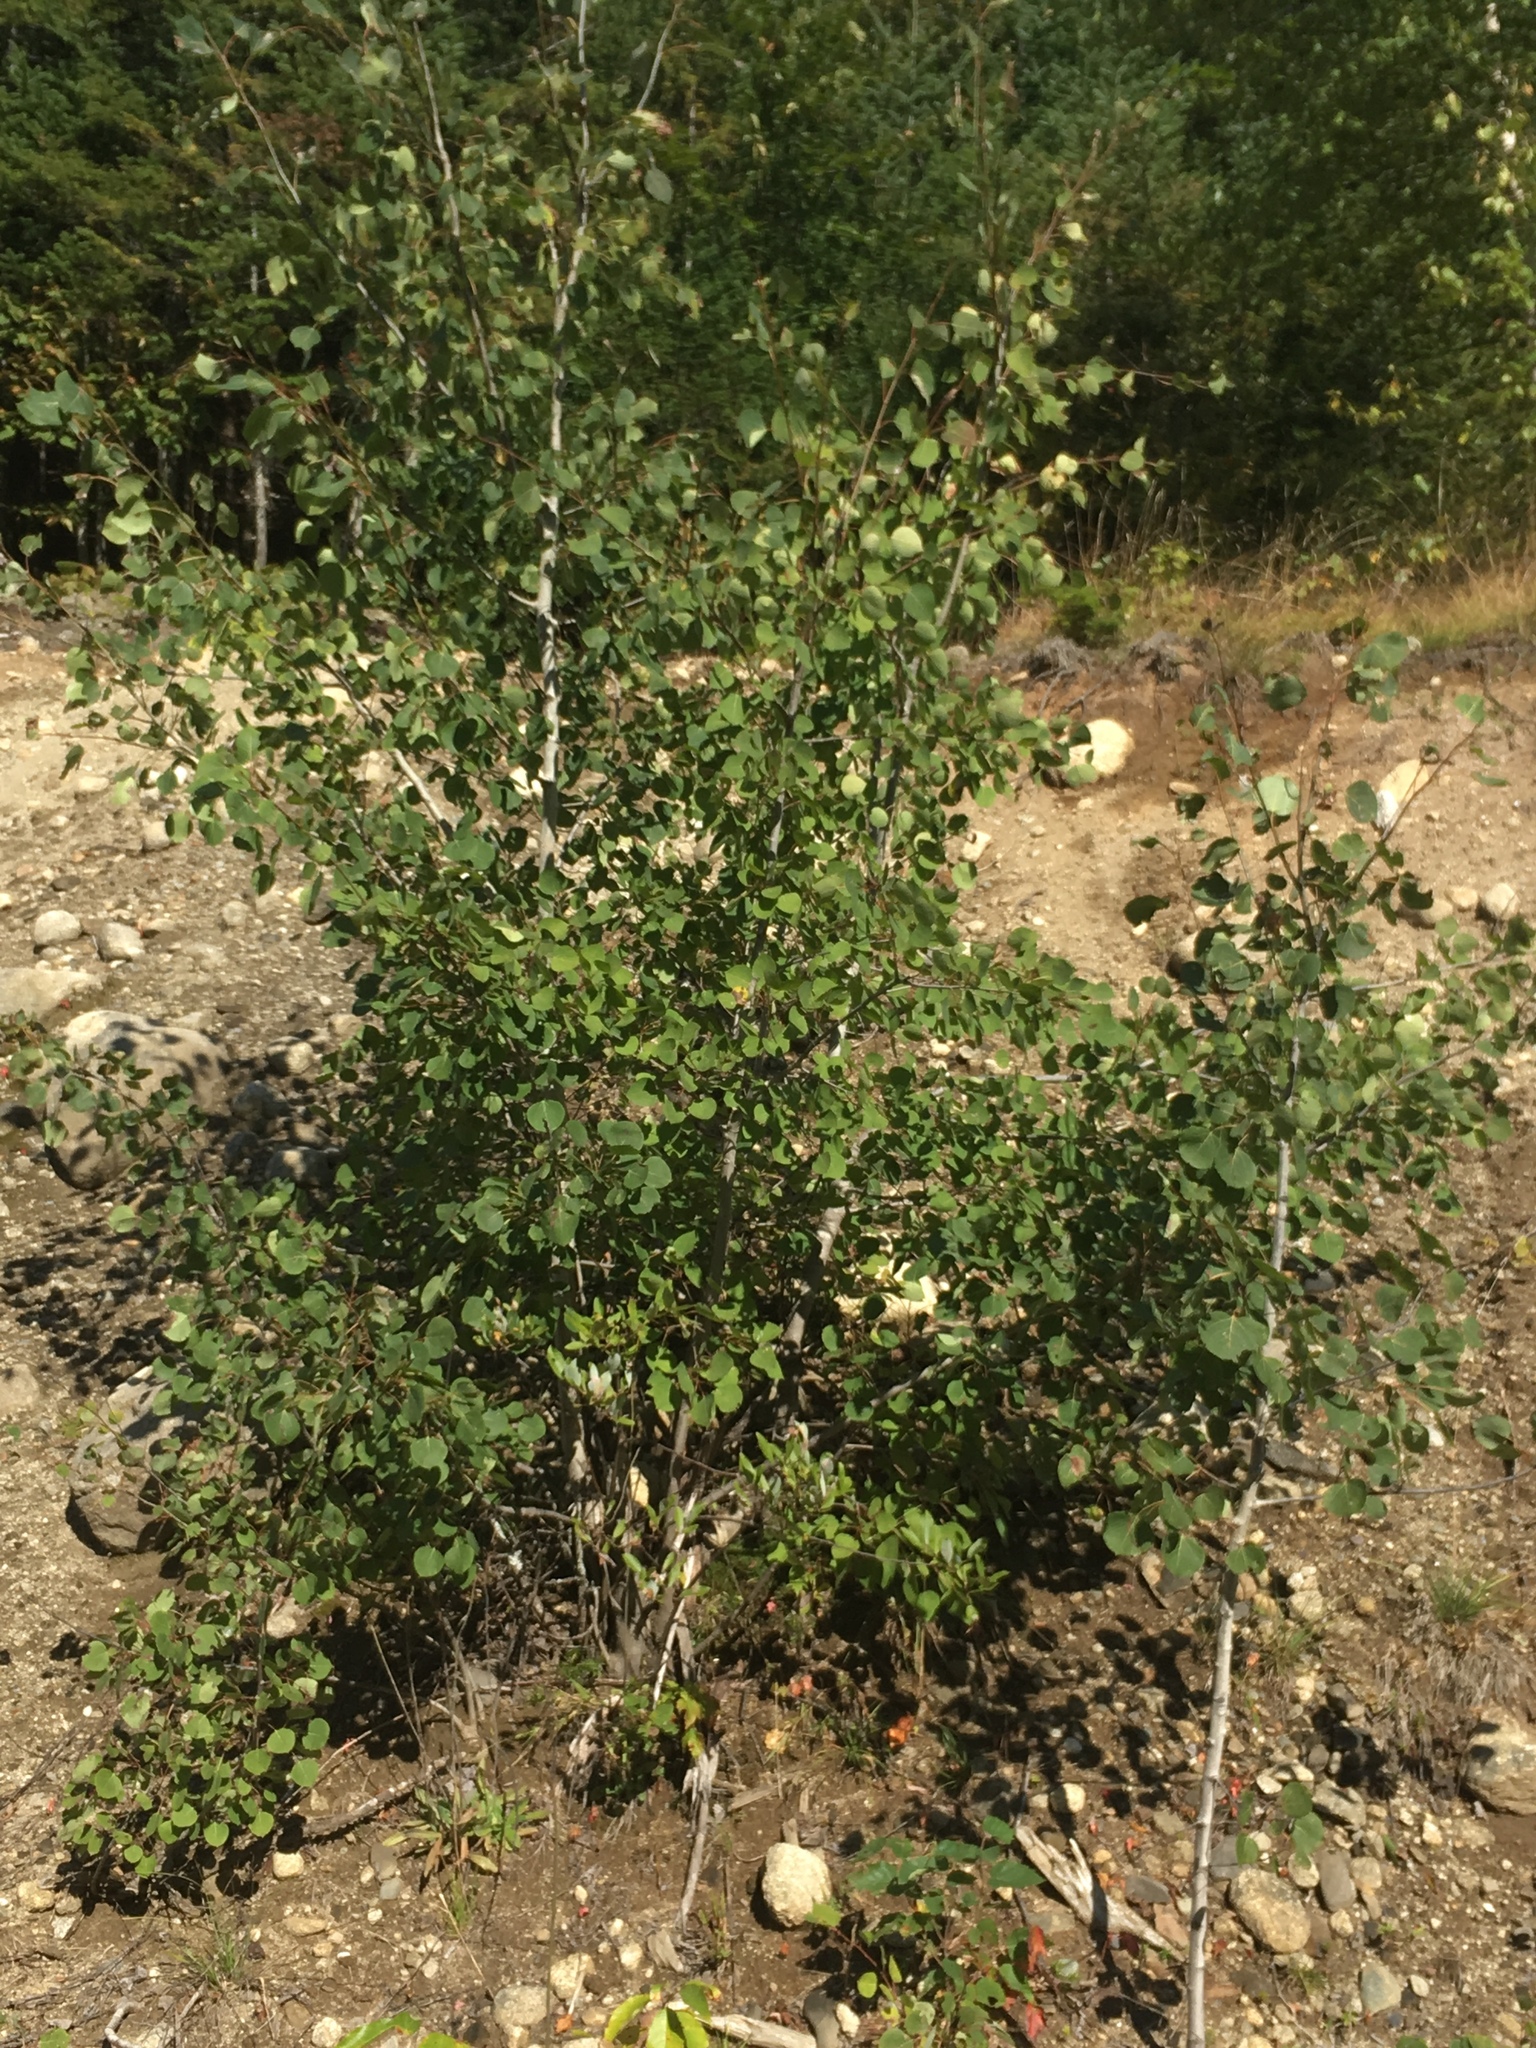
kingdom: Plantae
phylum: Tracheophyta
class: Magnoliopsida
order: Malpighiales
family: Salicaceae
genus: Populus
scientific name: Populus tremuloides
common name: Quaking aspen
